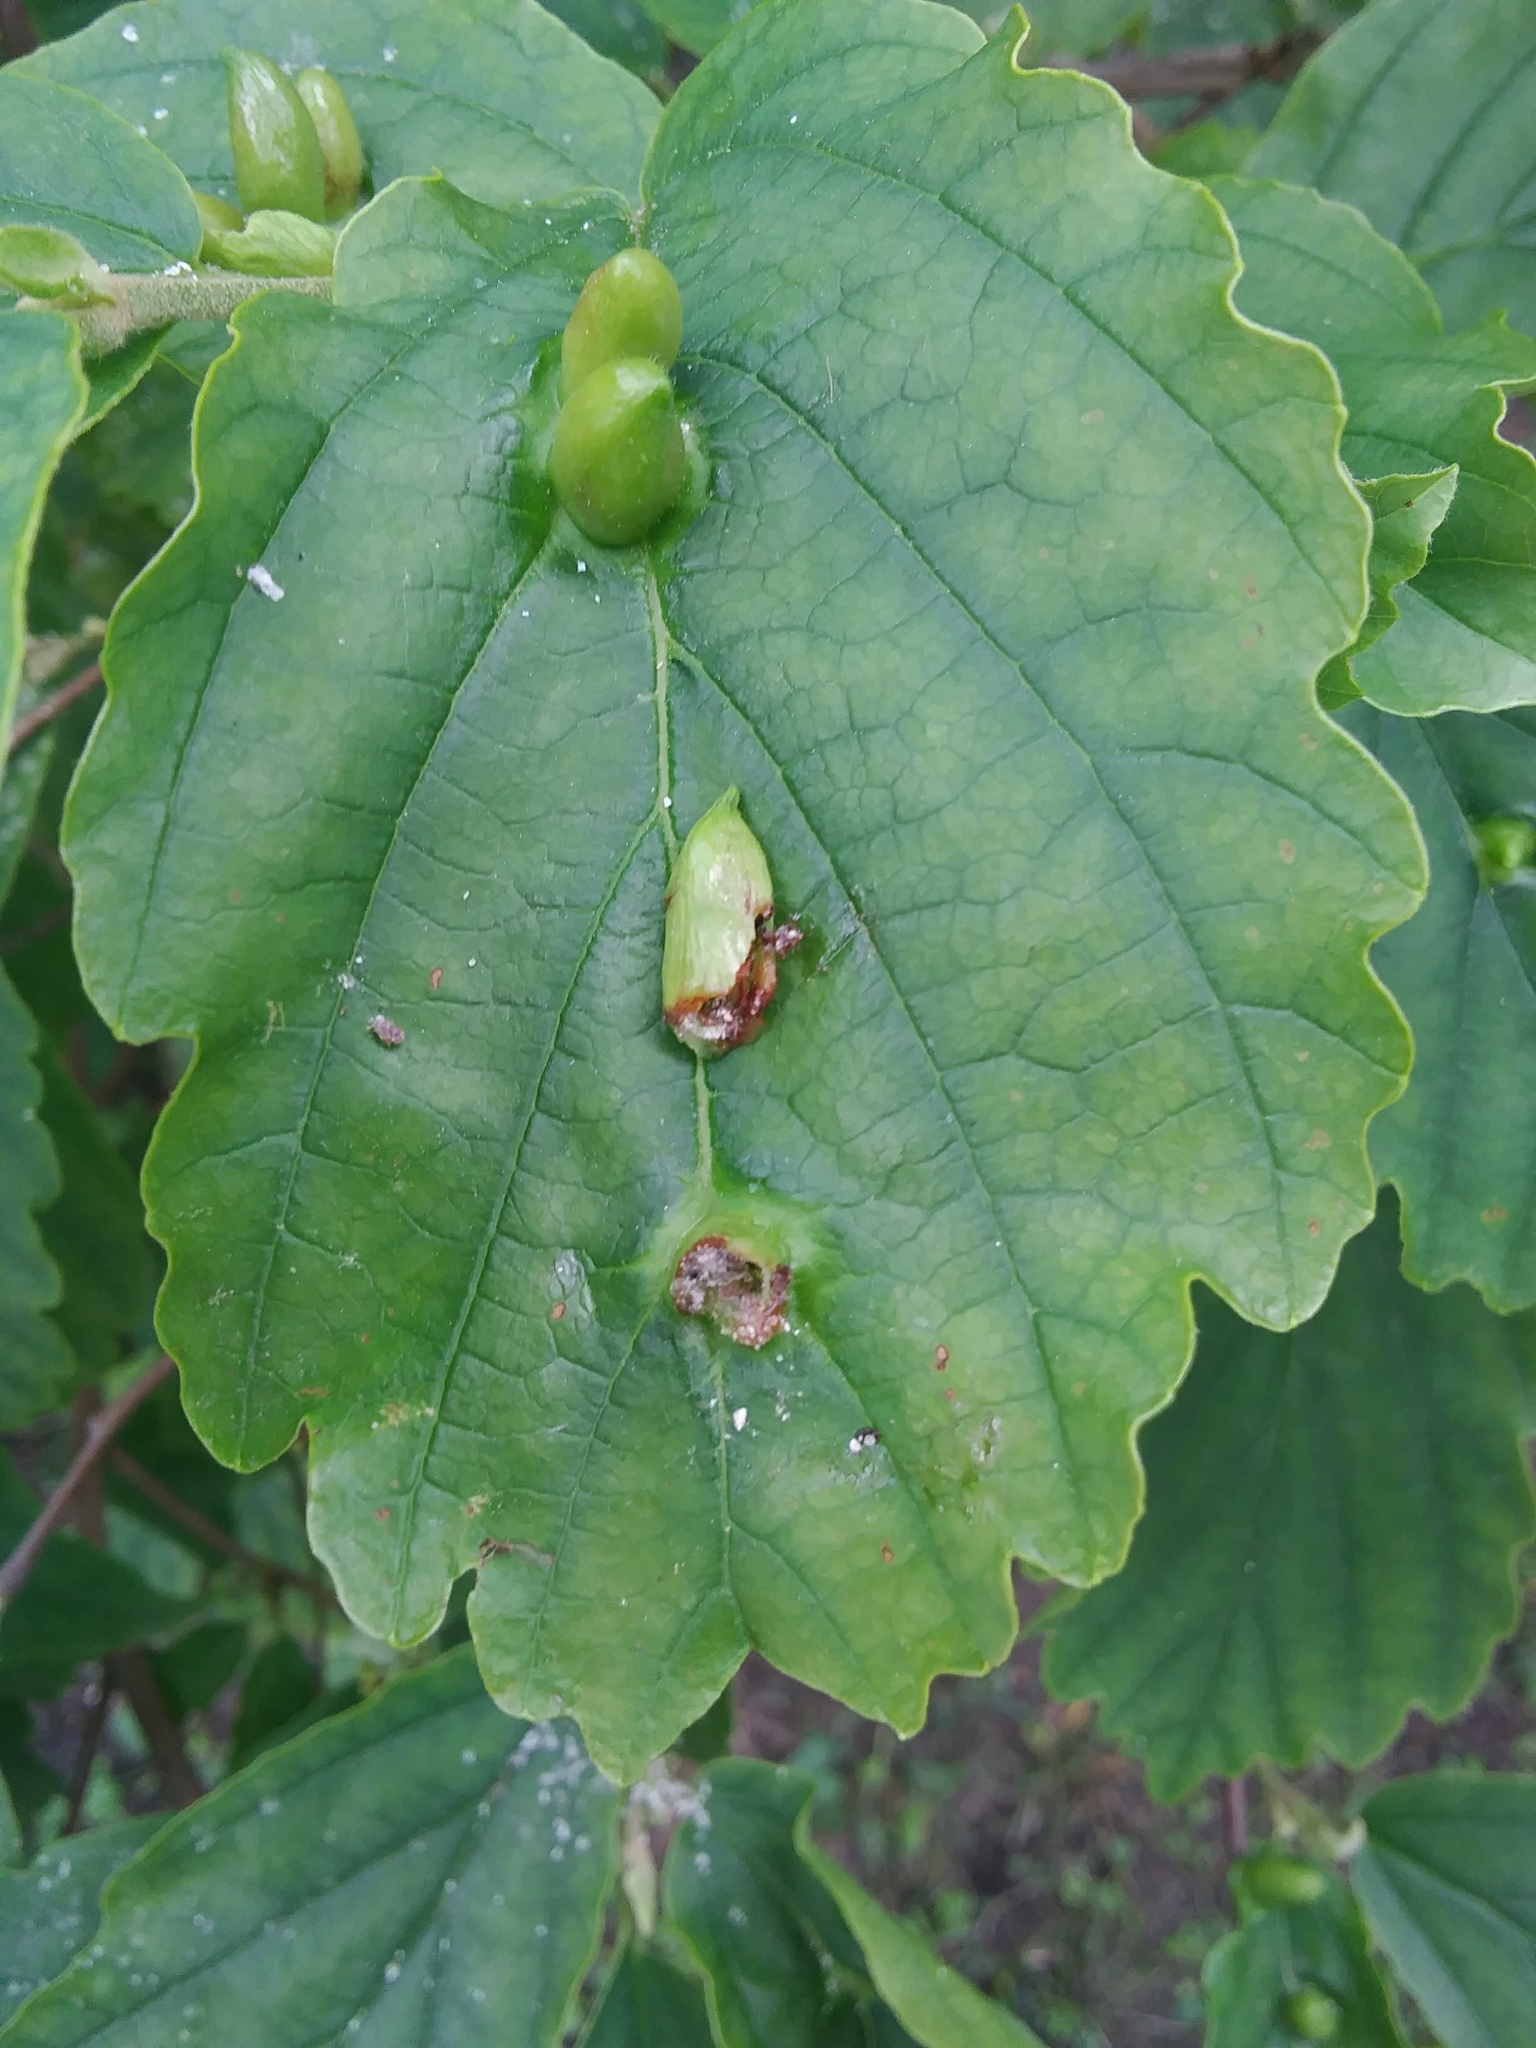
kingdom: Animalia
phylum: Arthropoda
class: Insecta
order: Hemiptera
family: Aphididae
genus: Hormaphis
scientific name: Hormaphis hamamelidis
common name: Witch-hazel cone gall aphid
